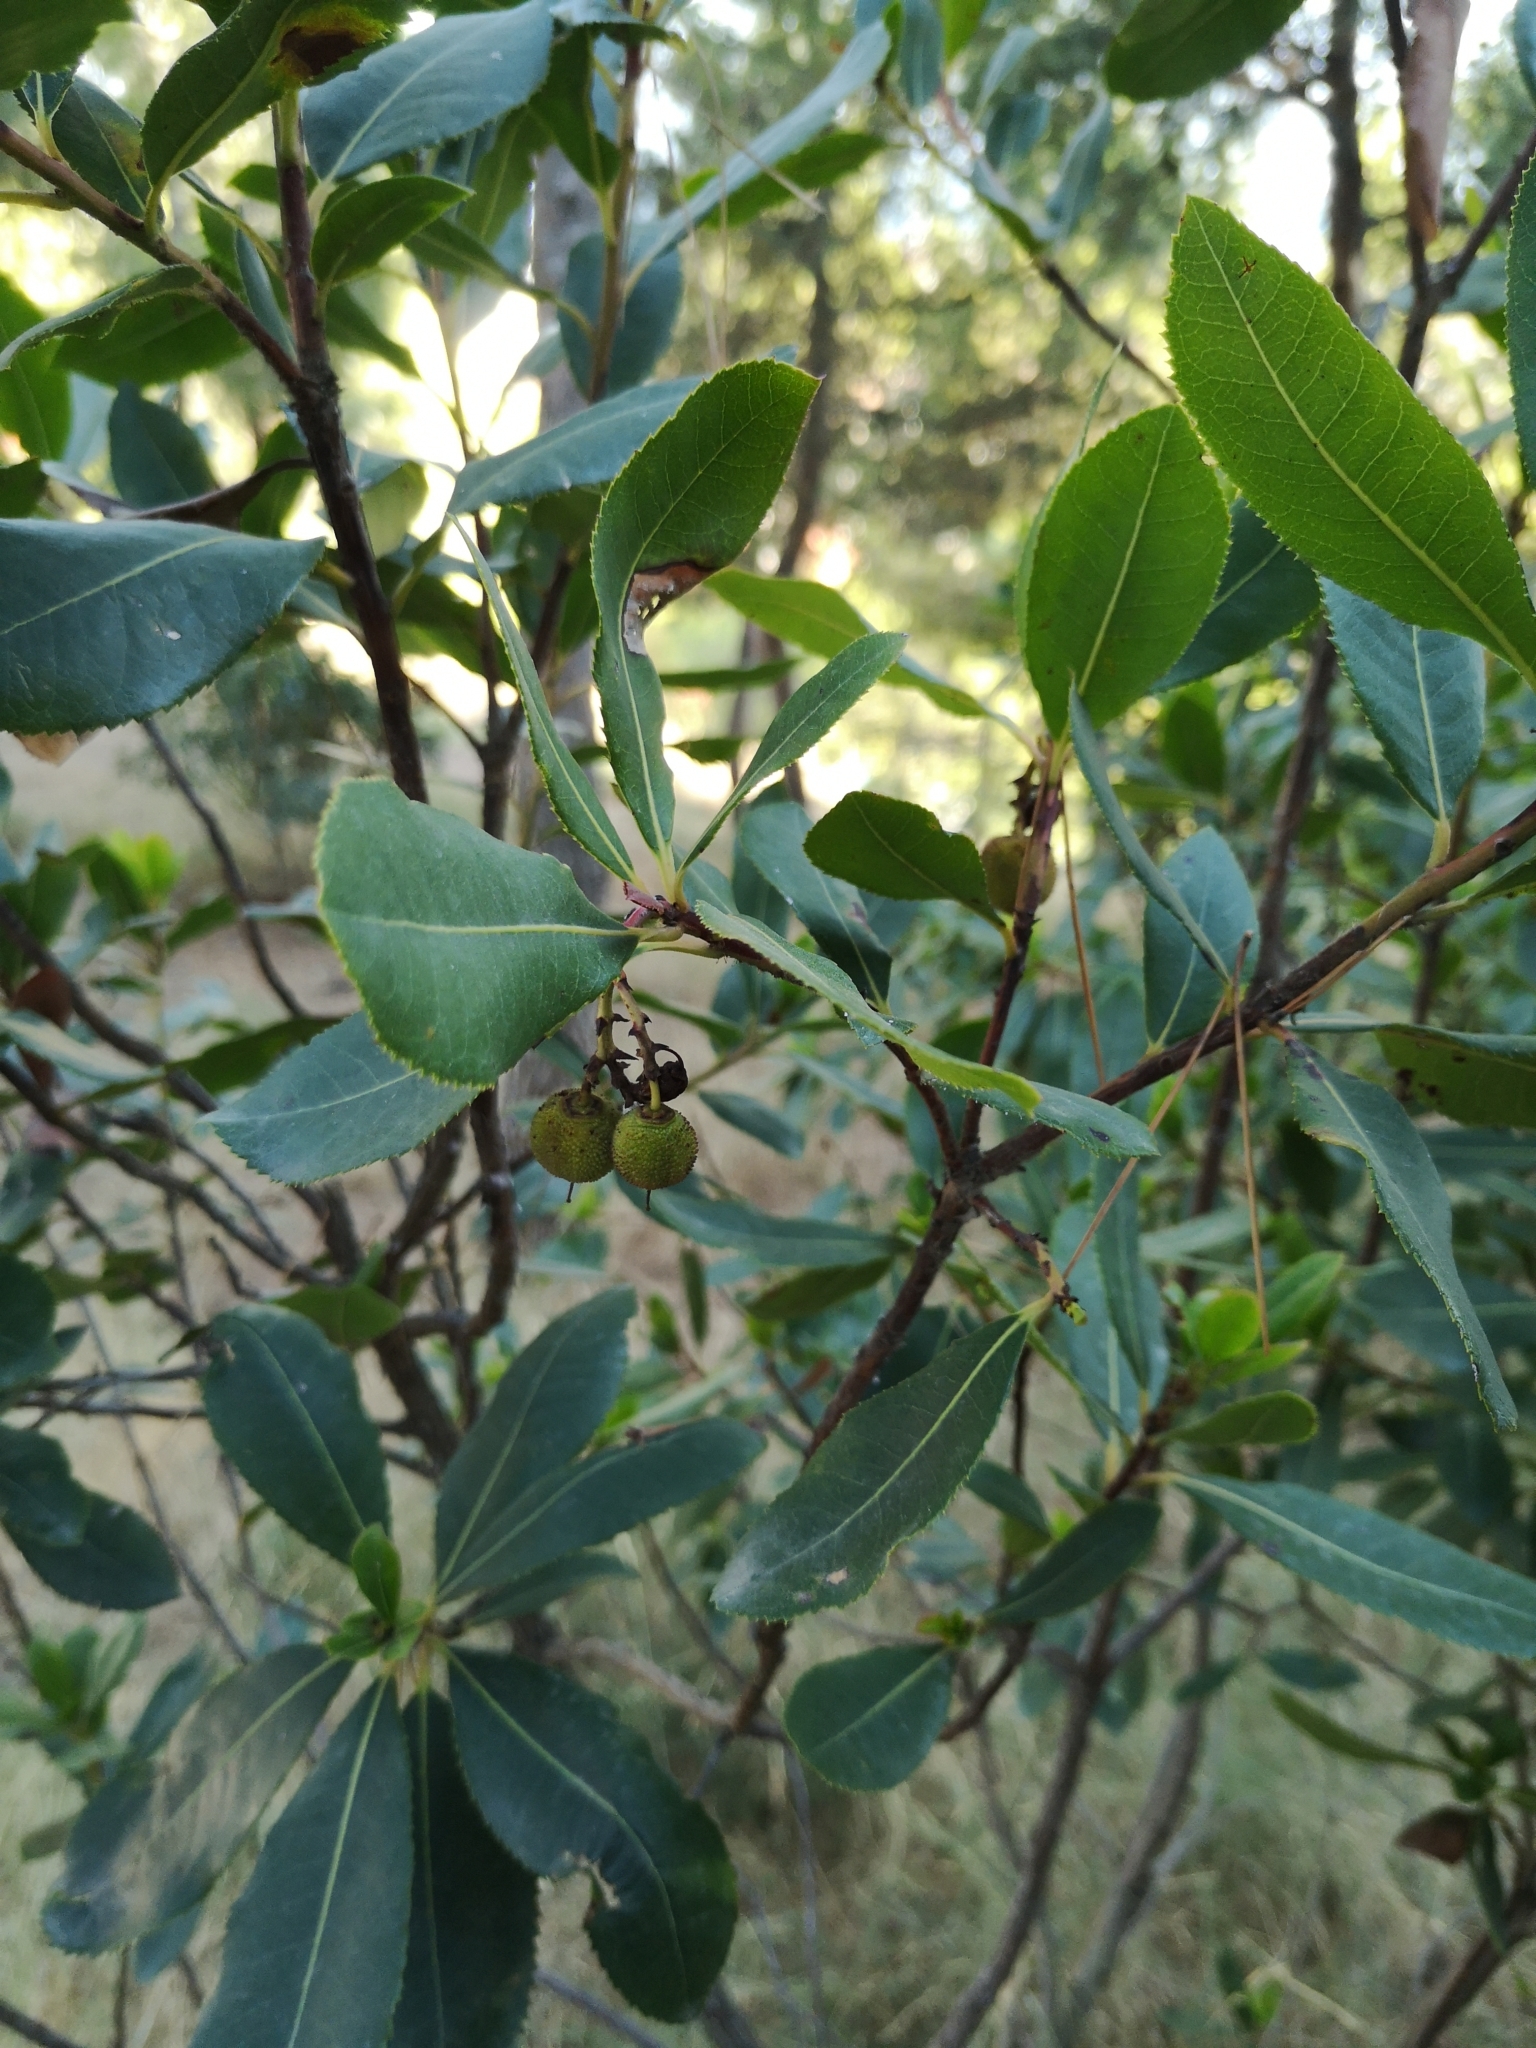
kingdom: Plantae
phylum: Tracheophyta
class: Magnoliopsida
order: Ericales
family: Ericaceae
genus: Arbutus
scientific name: Arbutus unedo
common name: Strawberry-tree
